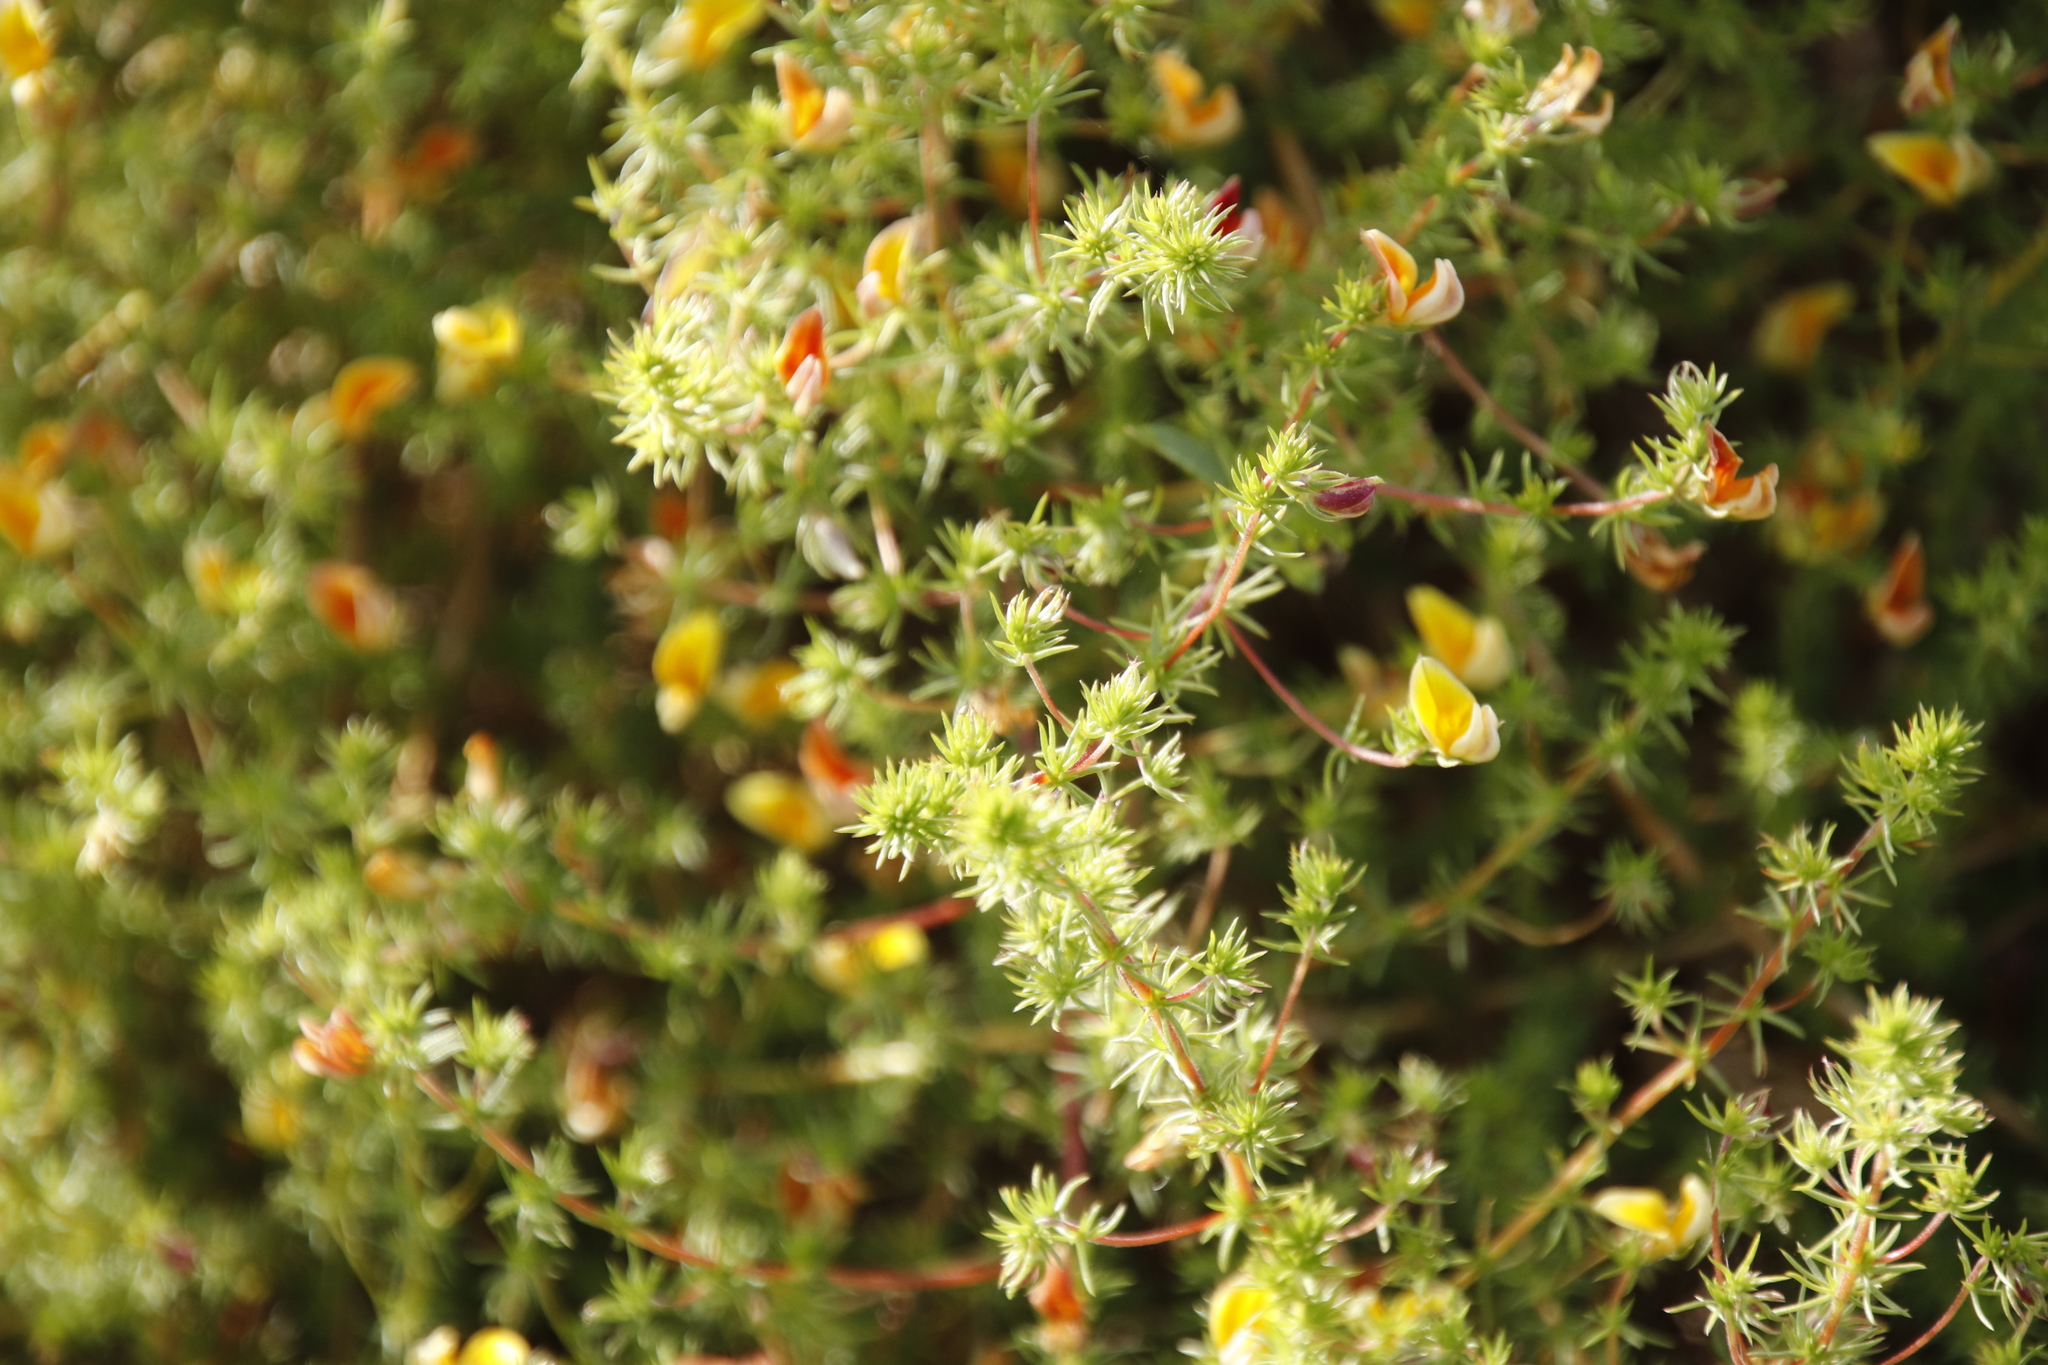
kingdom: Plantae
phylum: Tracheophyta
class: Magnoliopsida
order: Fabales
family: Fabaceae
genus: Aspalathus
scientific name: Aspalathus retroflexa
